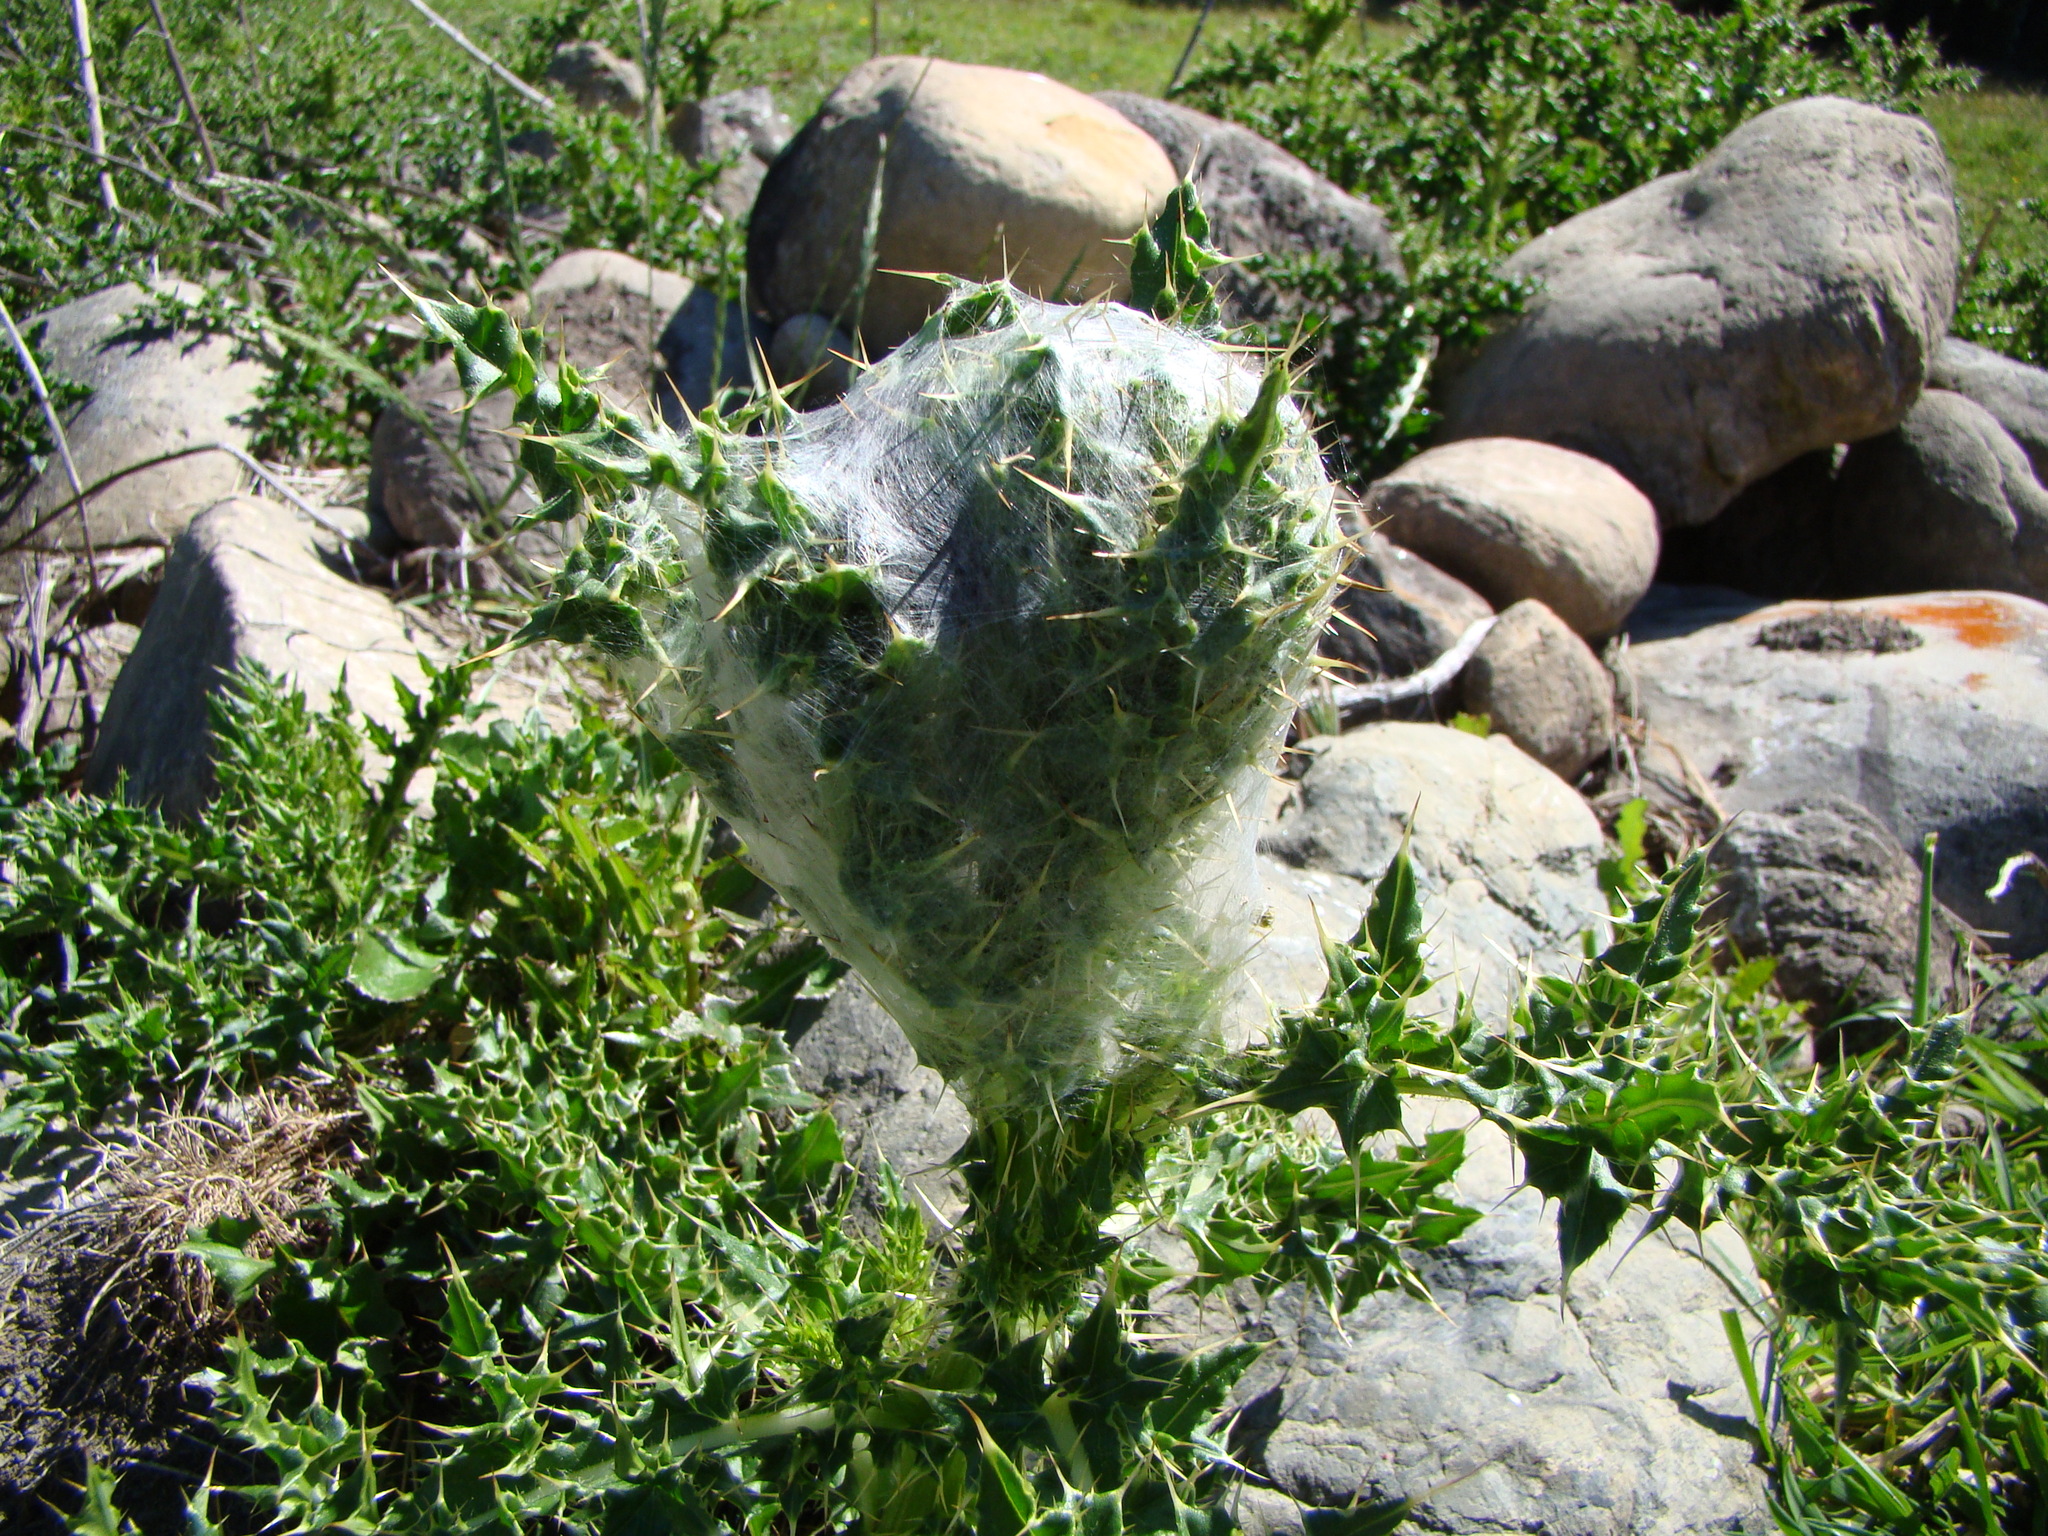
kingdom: Animalia
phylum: Arthropoda
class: Arachnida
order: Araneae
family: Pisauridae
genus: Dolomedes
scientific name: Dolomedes minor
